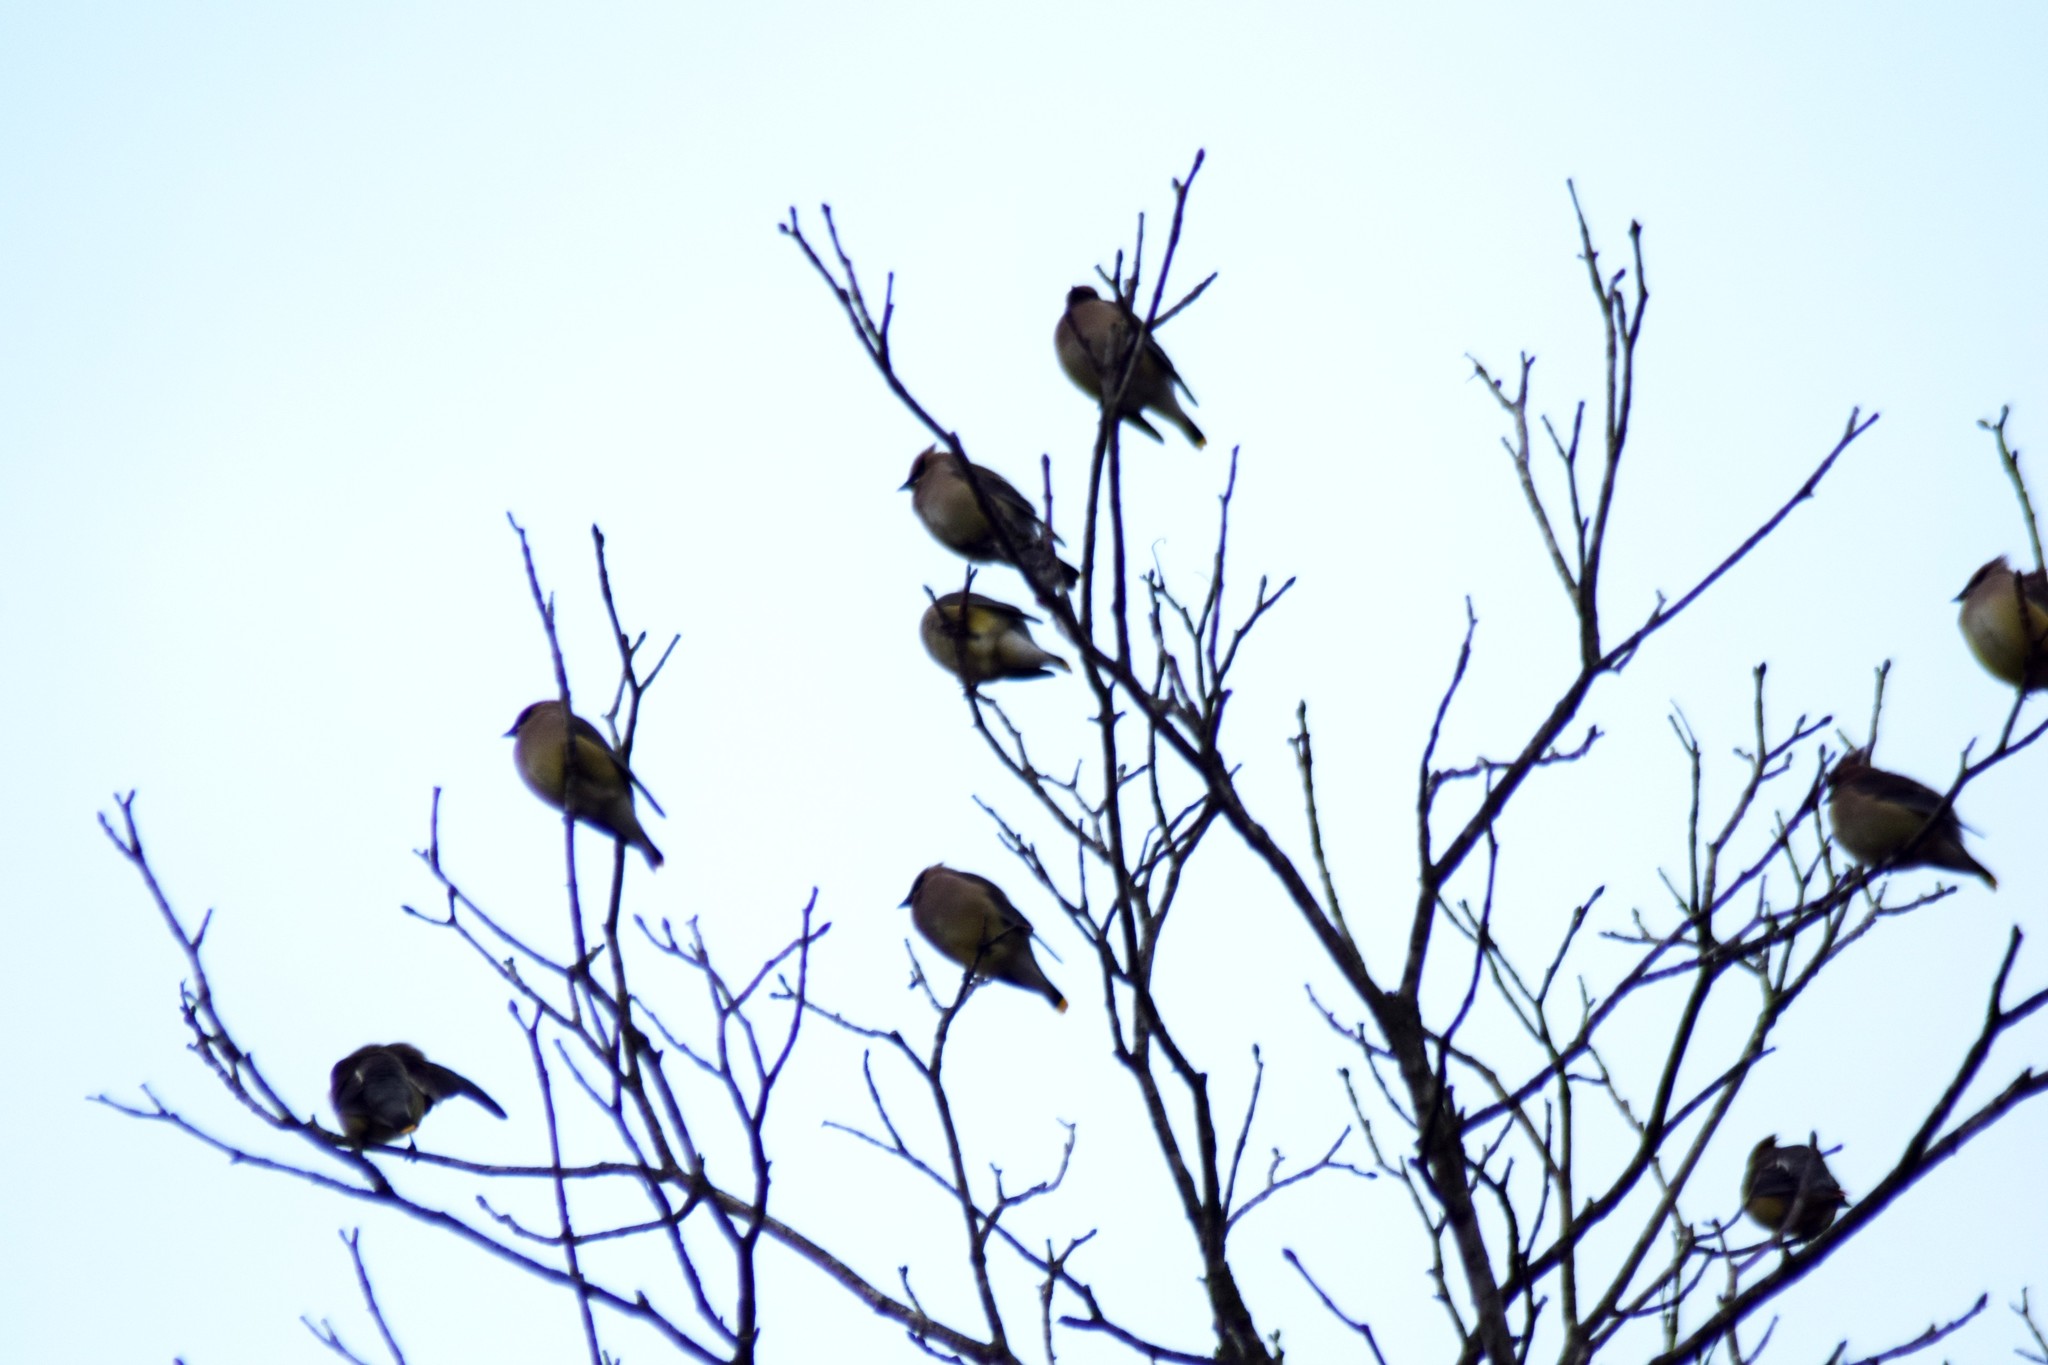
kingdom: Animalia
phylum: Chordata
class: Aves
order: Passeriformes
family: Bombycillidae
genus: Bombycilla
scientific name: Bombycilla cedrorum
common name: Cedar waxwing
